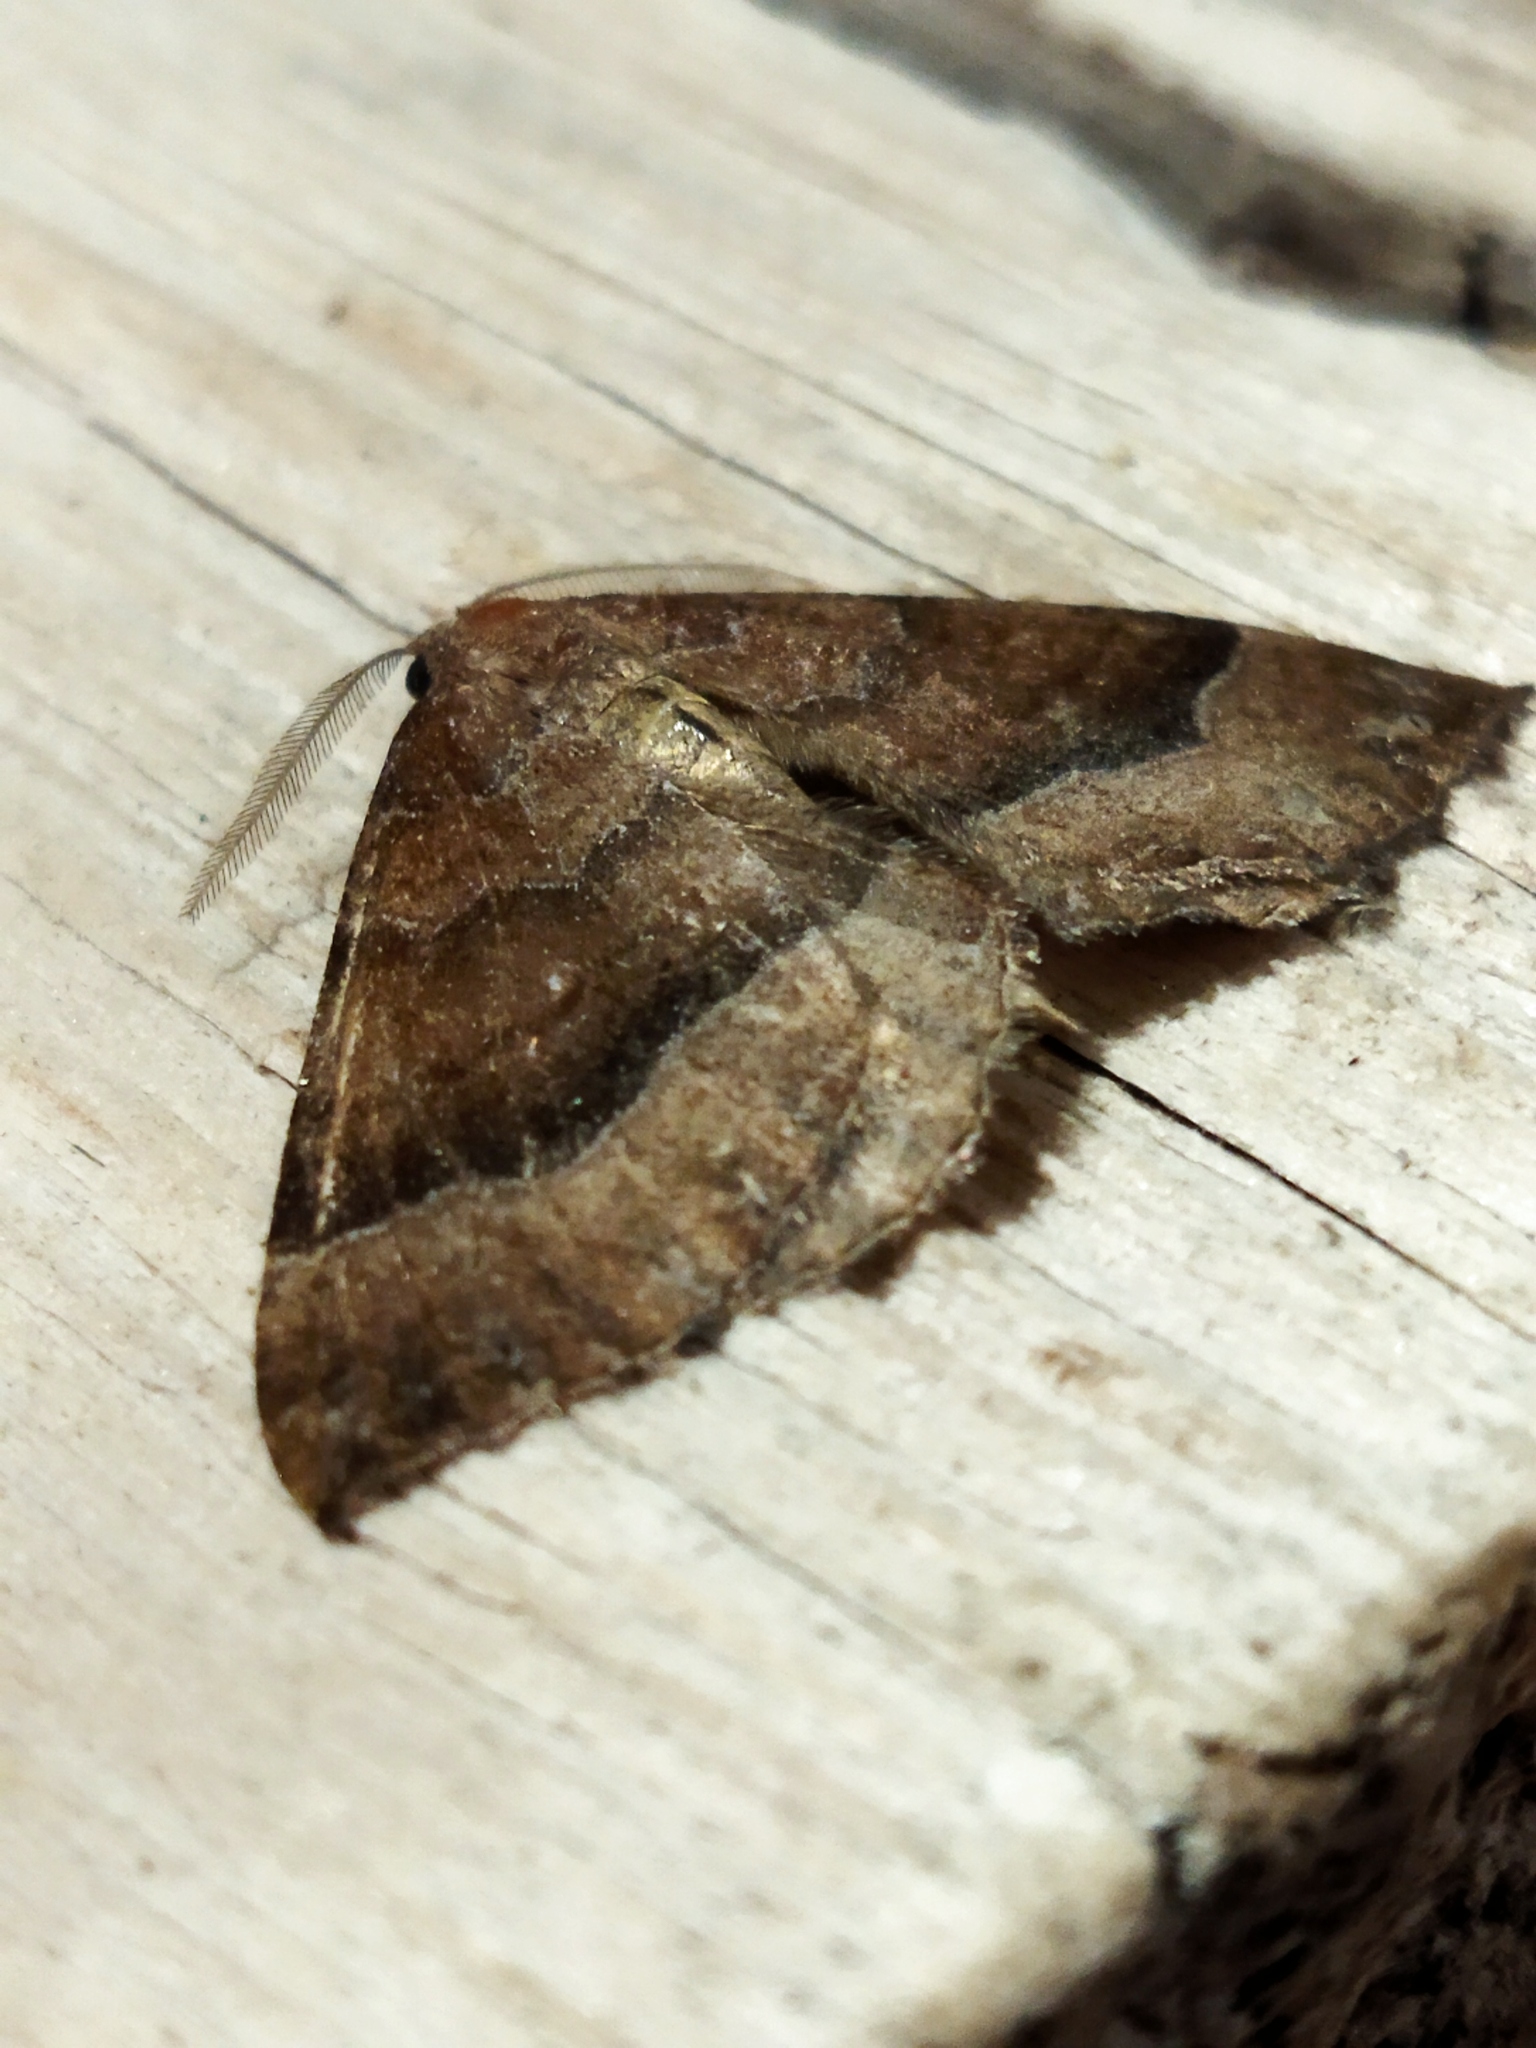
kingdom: Animalia
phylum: Arthropoda
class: Insecta
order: Lepidoptera
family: Geometridae
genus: Larentia
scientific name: Larentia clavaria
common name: Mallow
